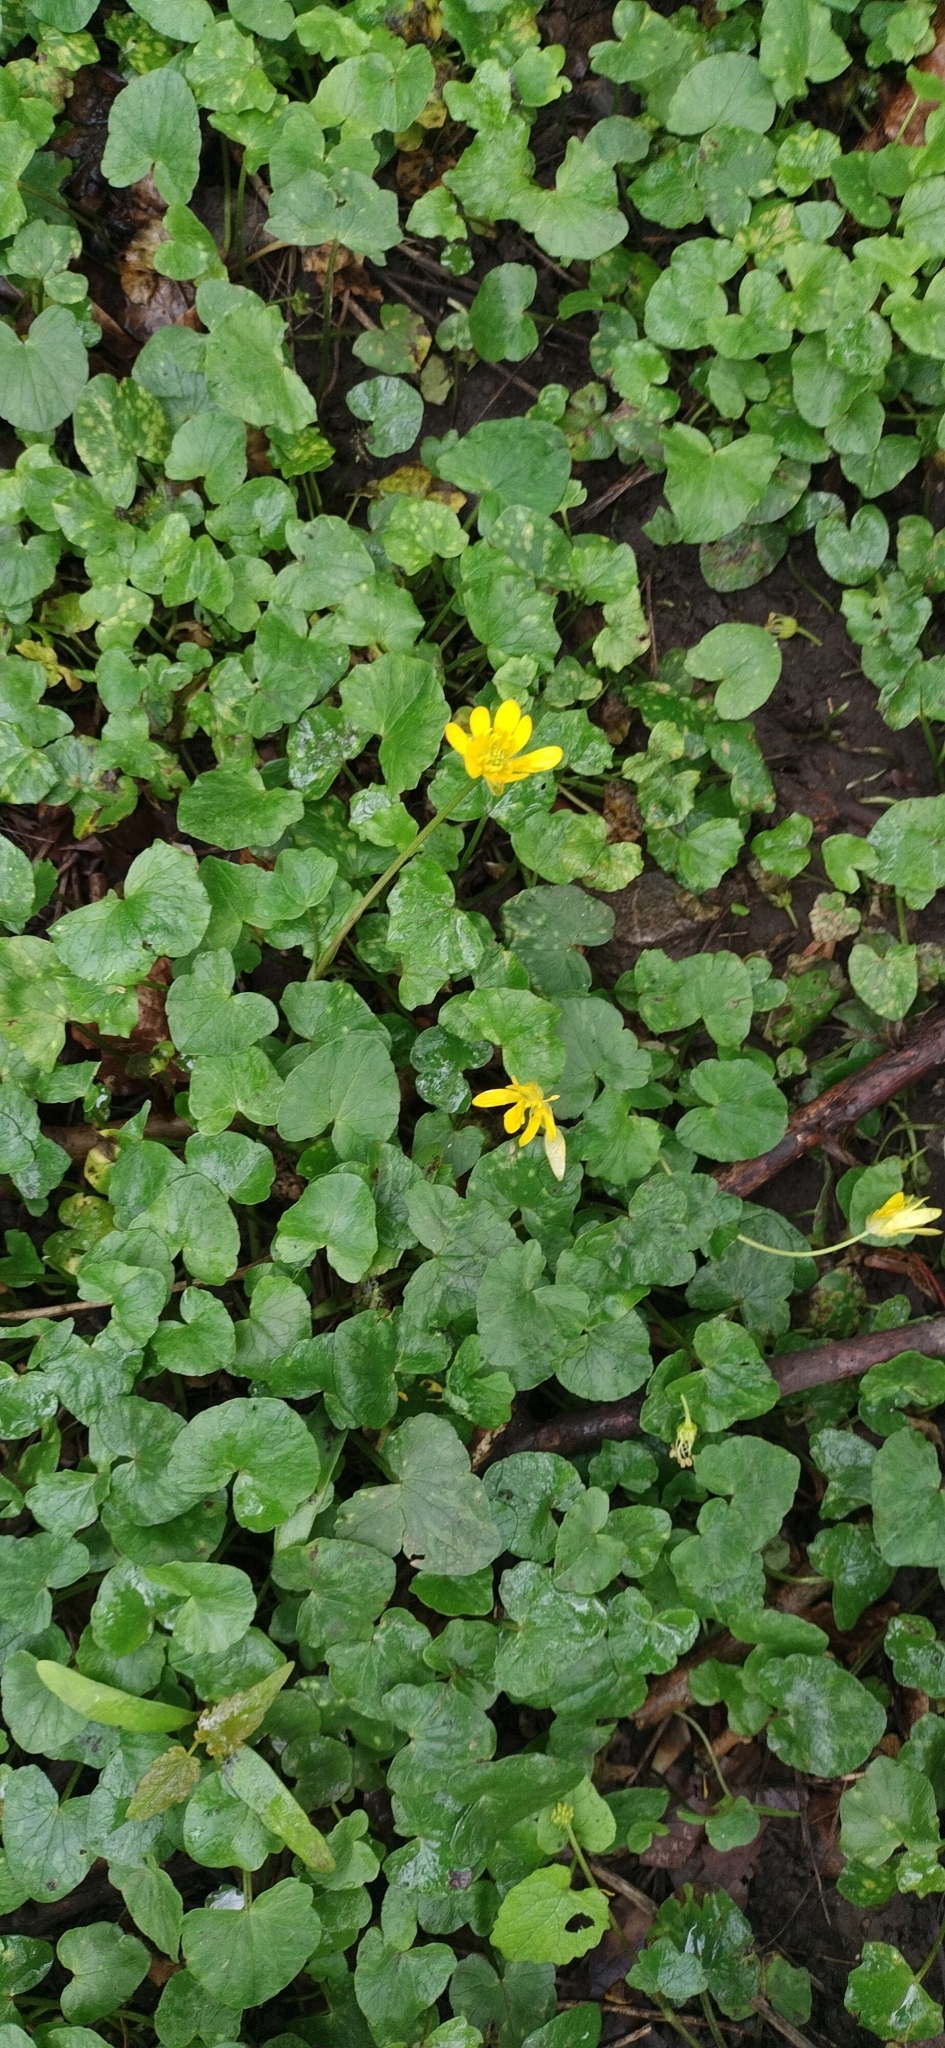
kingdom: Plantae
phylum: Tracheophyta
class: Magnoliopsida
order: Ranunculales
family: Ranunculaceae
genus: Ficaria
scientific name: Ficaria verna
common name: Lesser celandine
